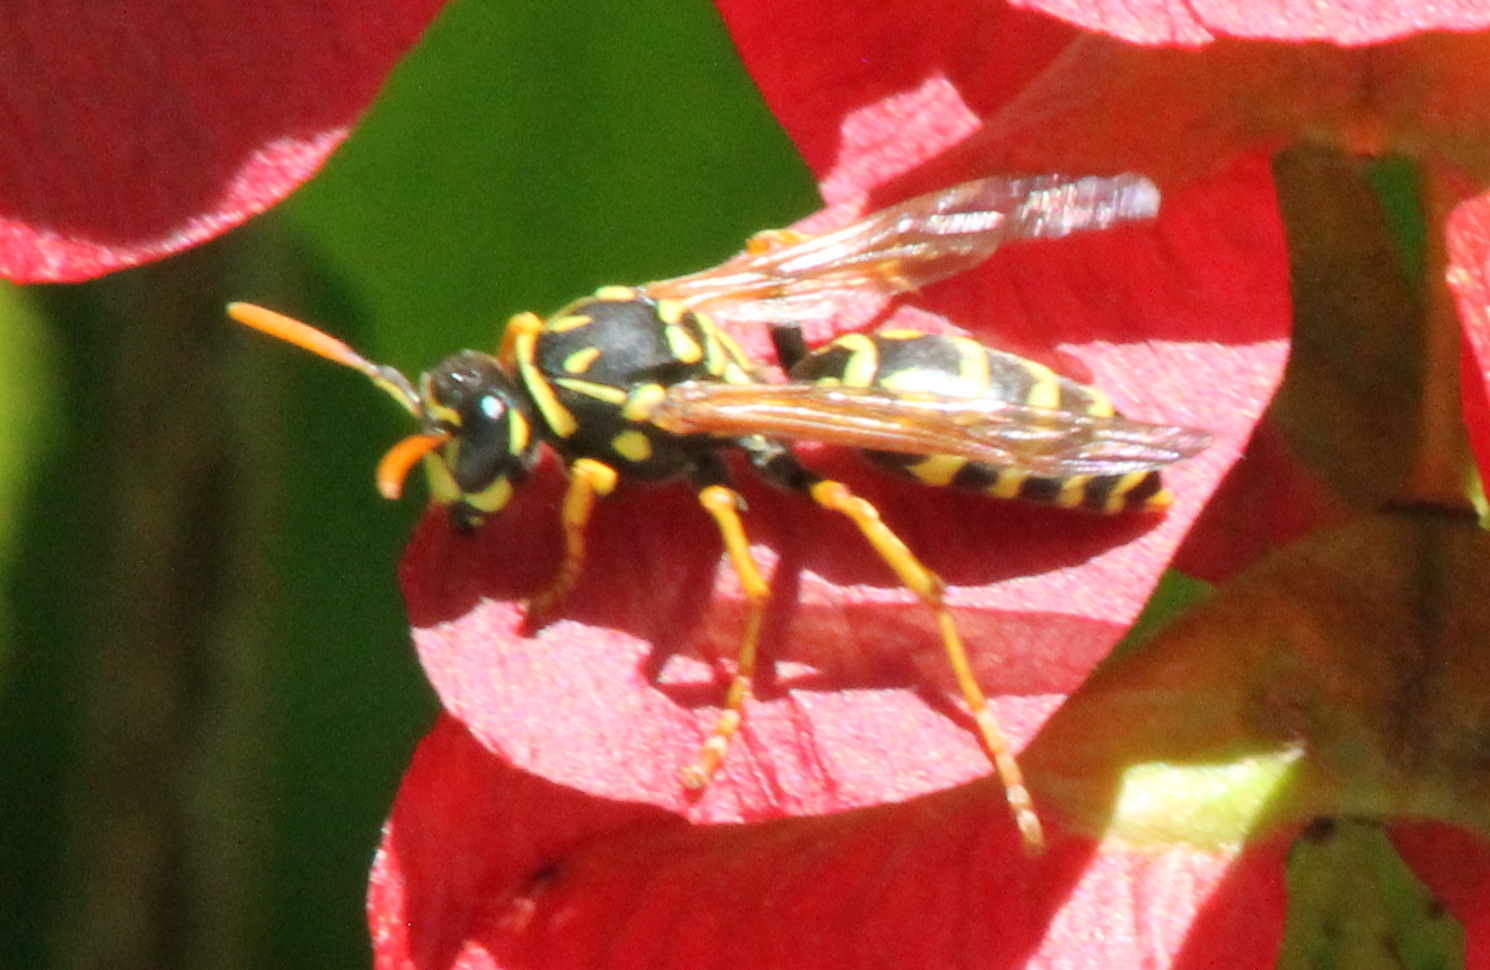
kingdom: Animalia
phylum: Arthropoda
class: Insecta
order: Hymenoptera
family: Eumenidae
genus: Polistes
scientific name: Polistes dominula
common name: Paper wasp
